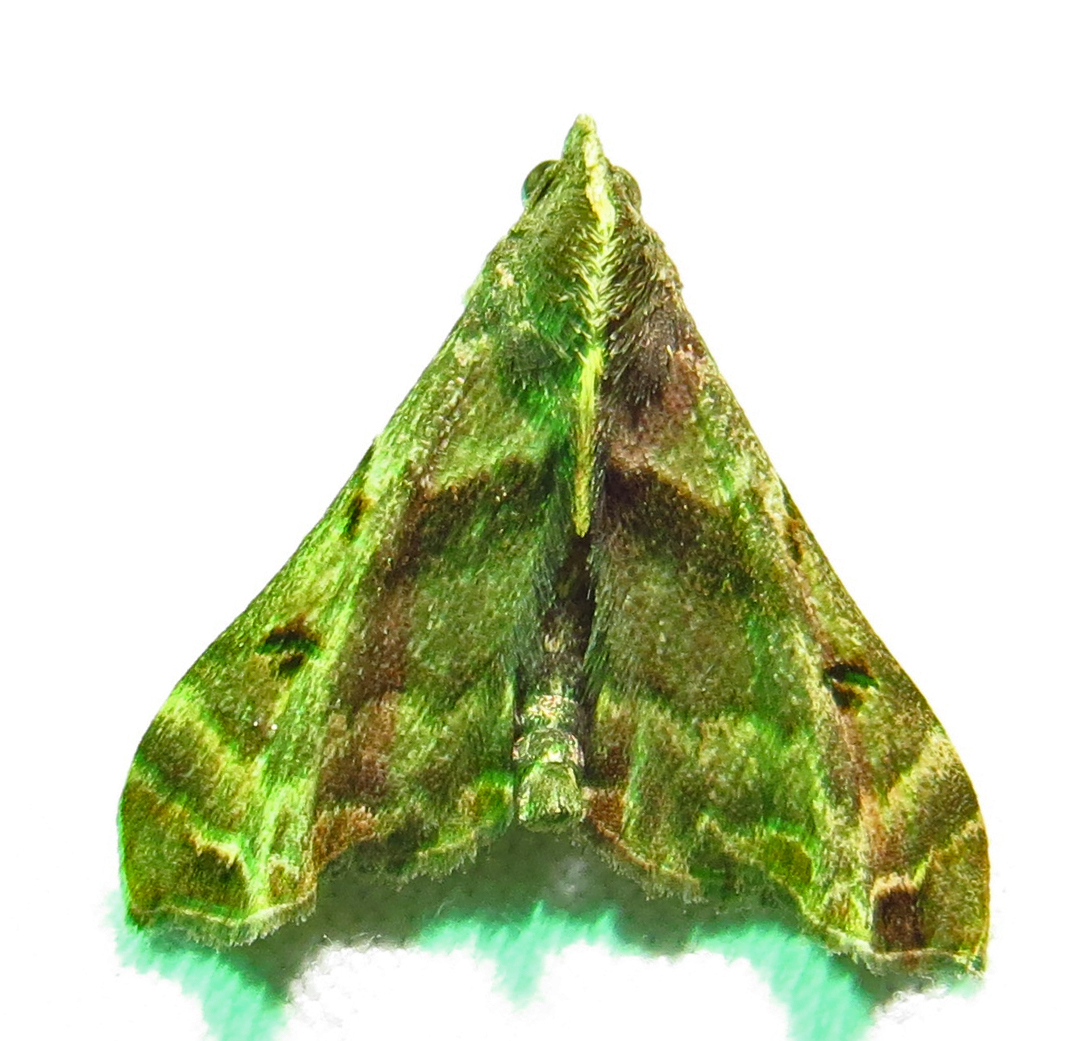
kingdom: Animalia
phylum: Arthropoda
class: Insecta
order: Lepidoptera
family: Erebidae
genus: Palthis
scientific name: Palthis asopialis
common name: Faint-spotted palthis moth
